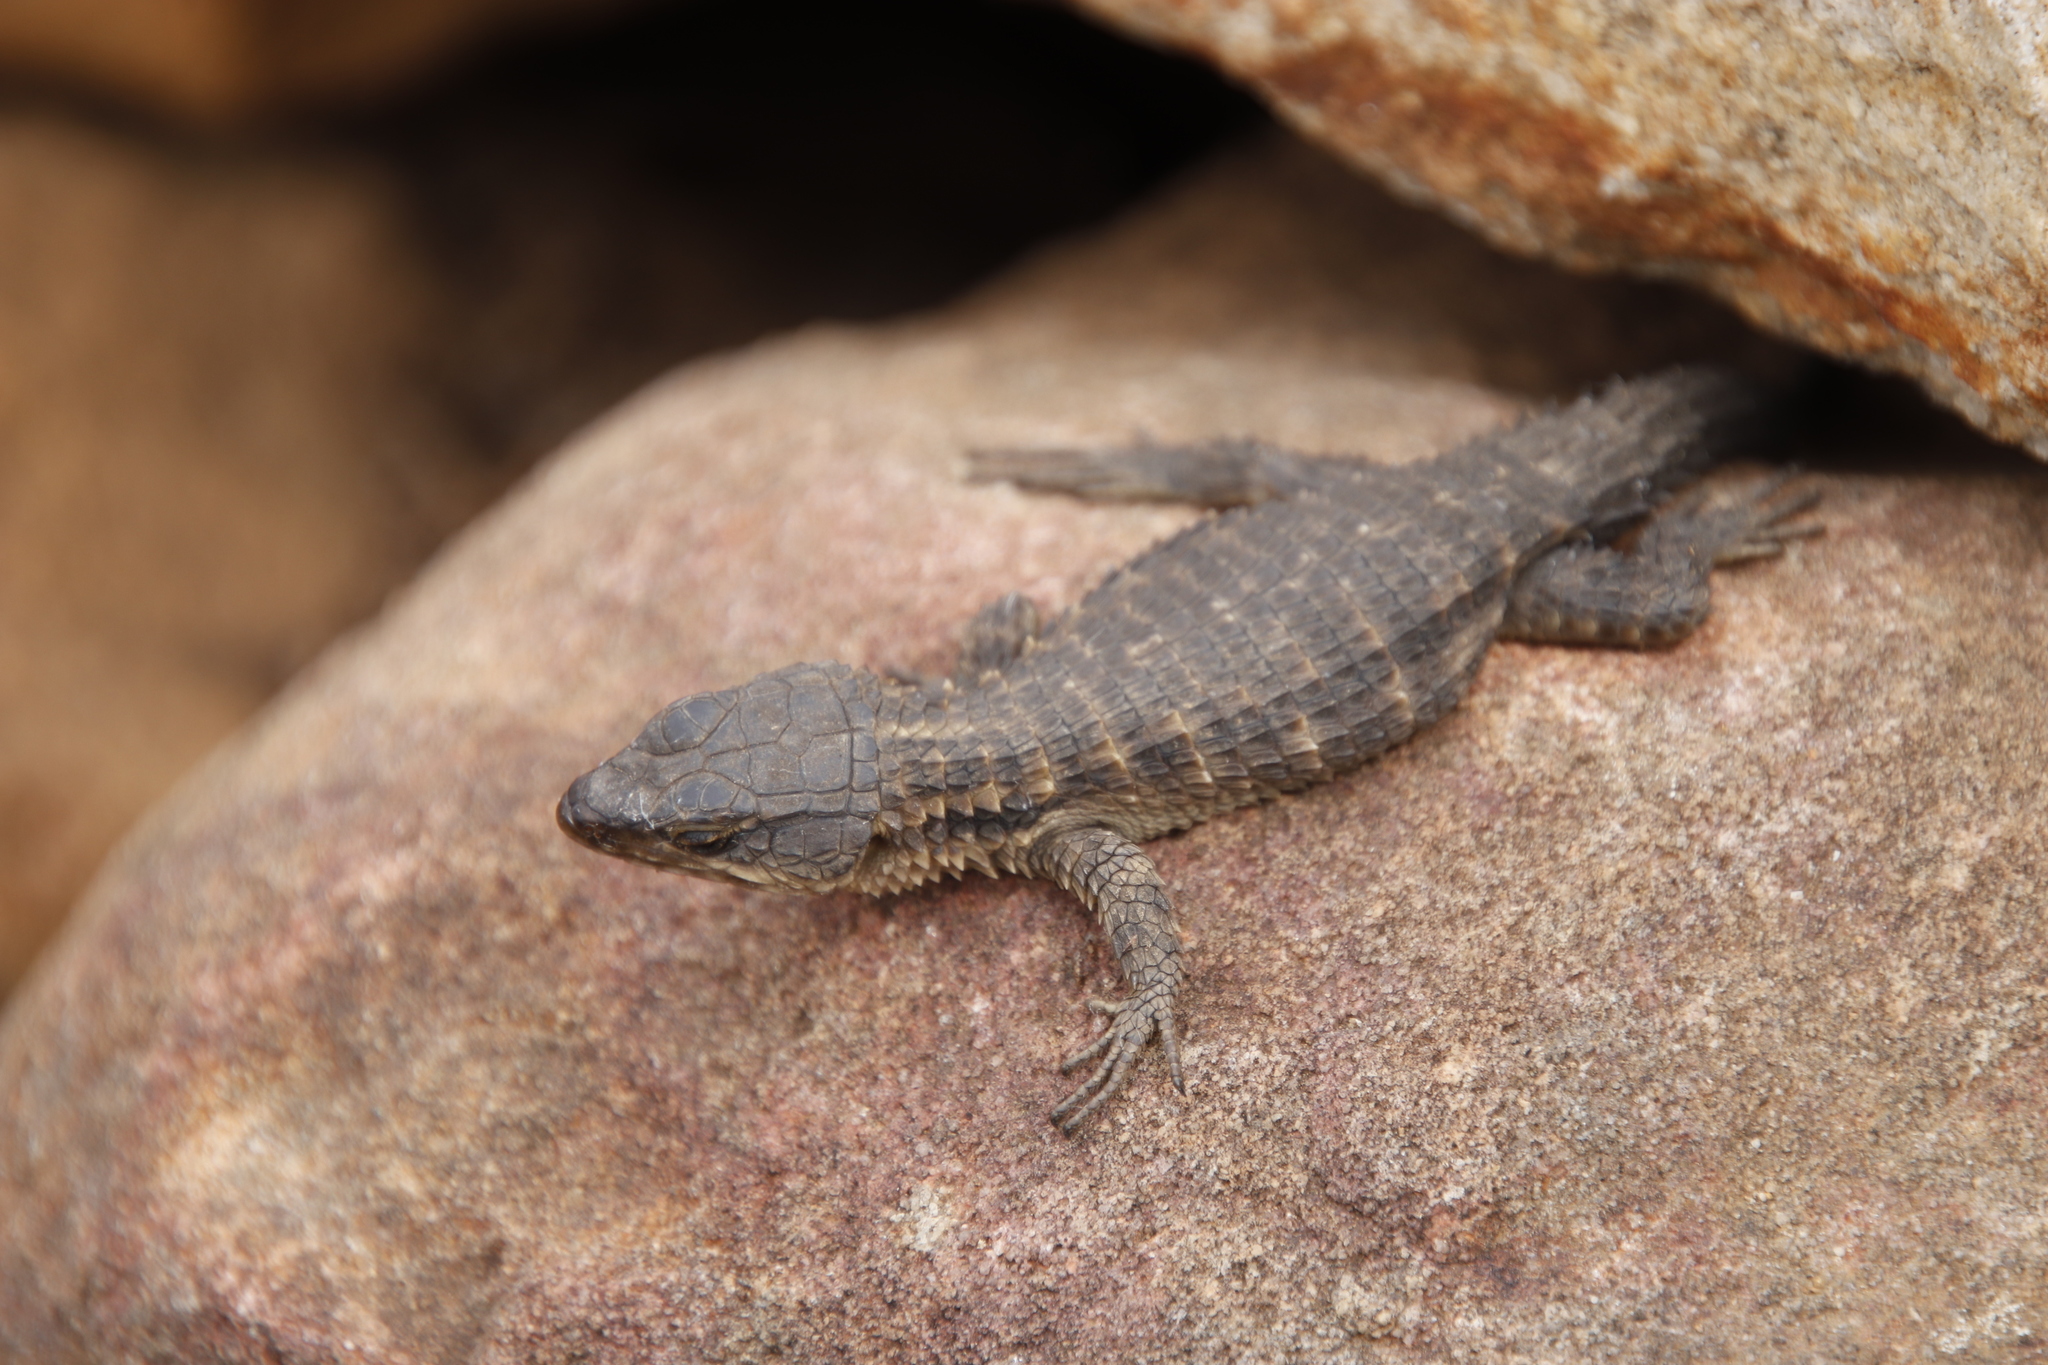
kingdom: Animalia
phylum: Chordata
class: Squamata
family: Cordylidae
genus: Cordylus
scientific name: Cordylus niger
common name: Black girdled lizard
